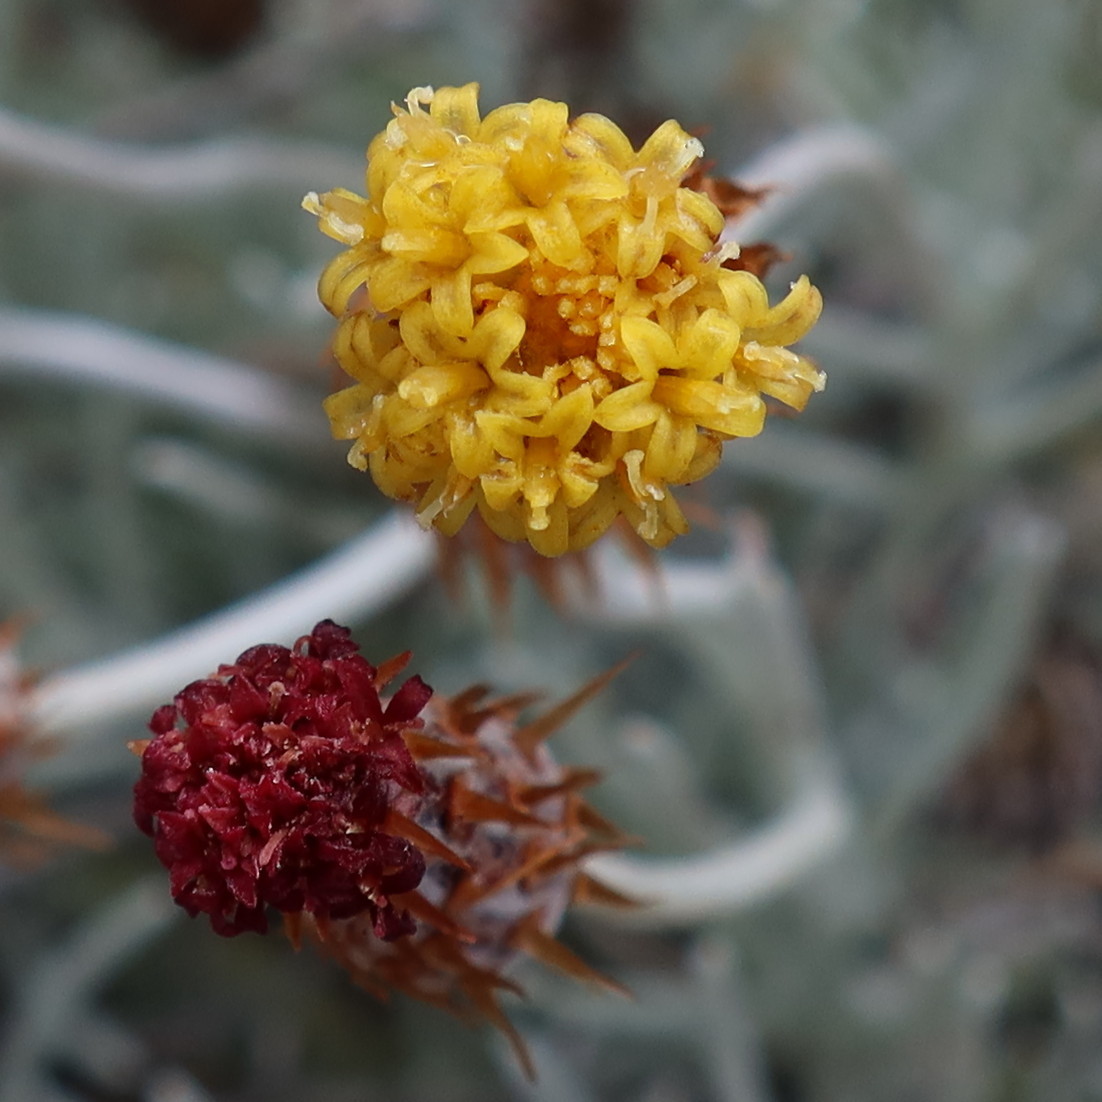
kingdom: Plantae
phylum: Tracheophyta
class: Magnoliopsida
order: Asterales
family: Asteraceae
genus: Syncarpha
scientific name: Syncarpha gnaphaloides
